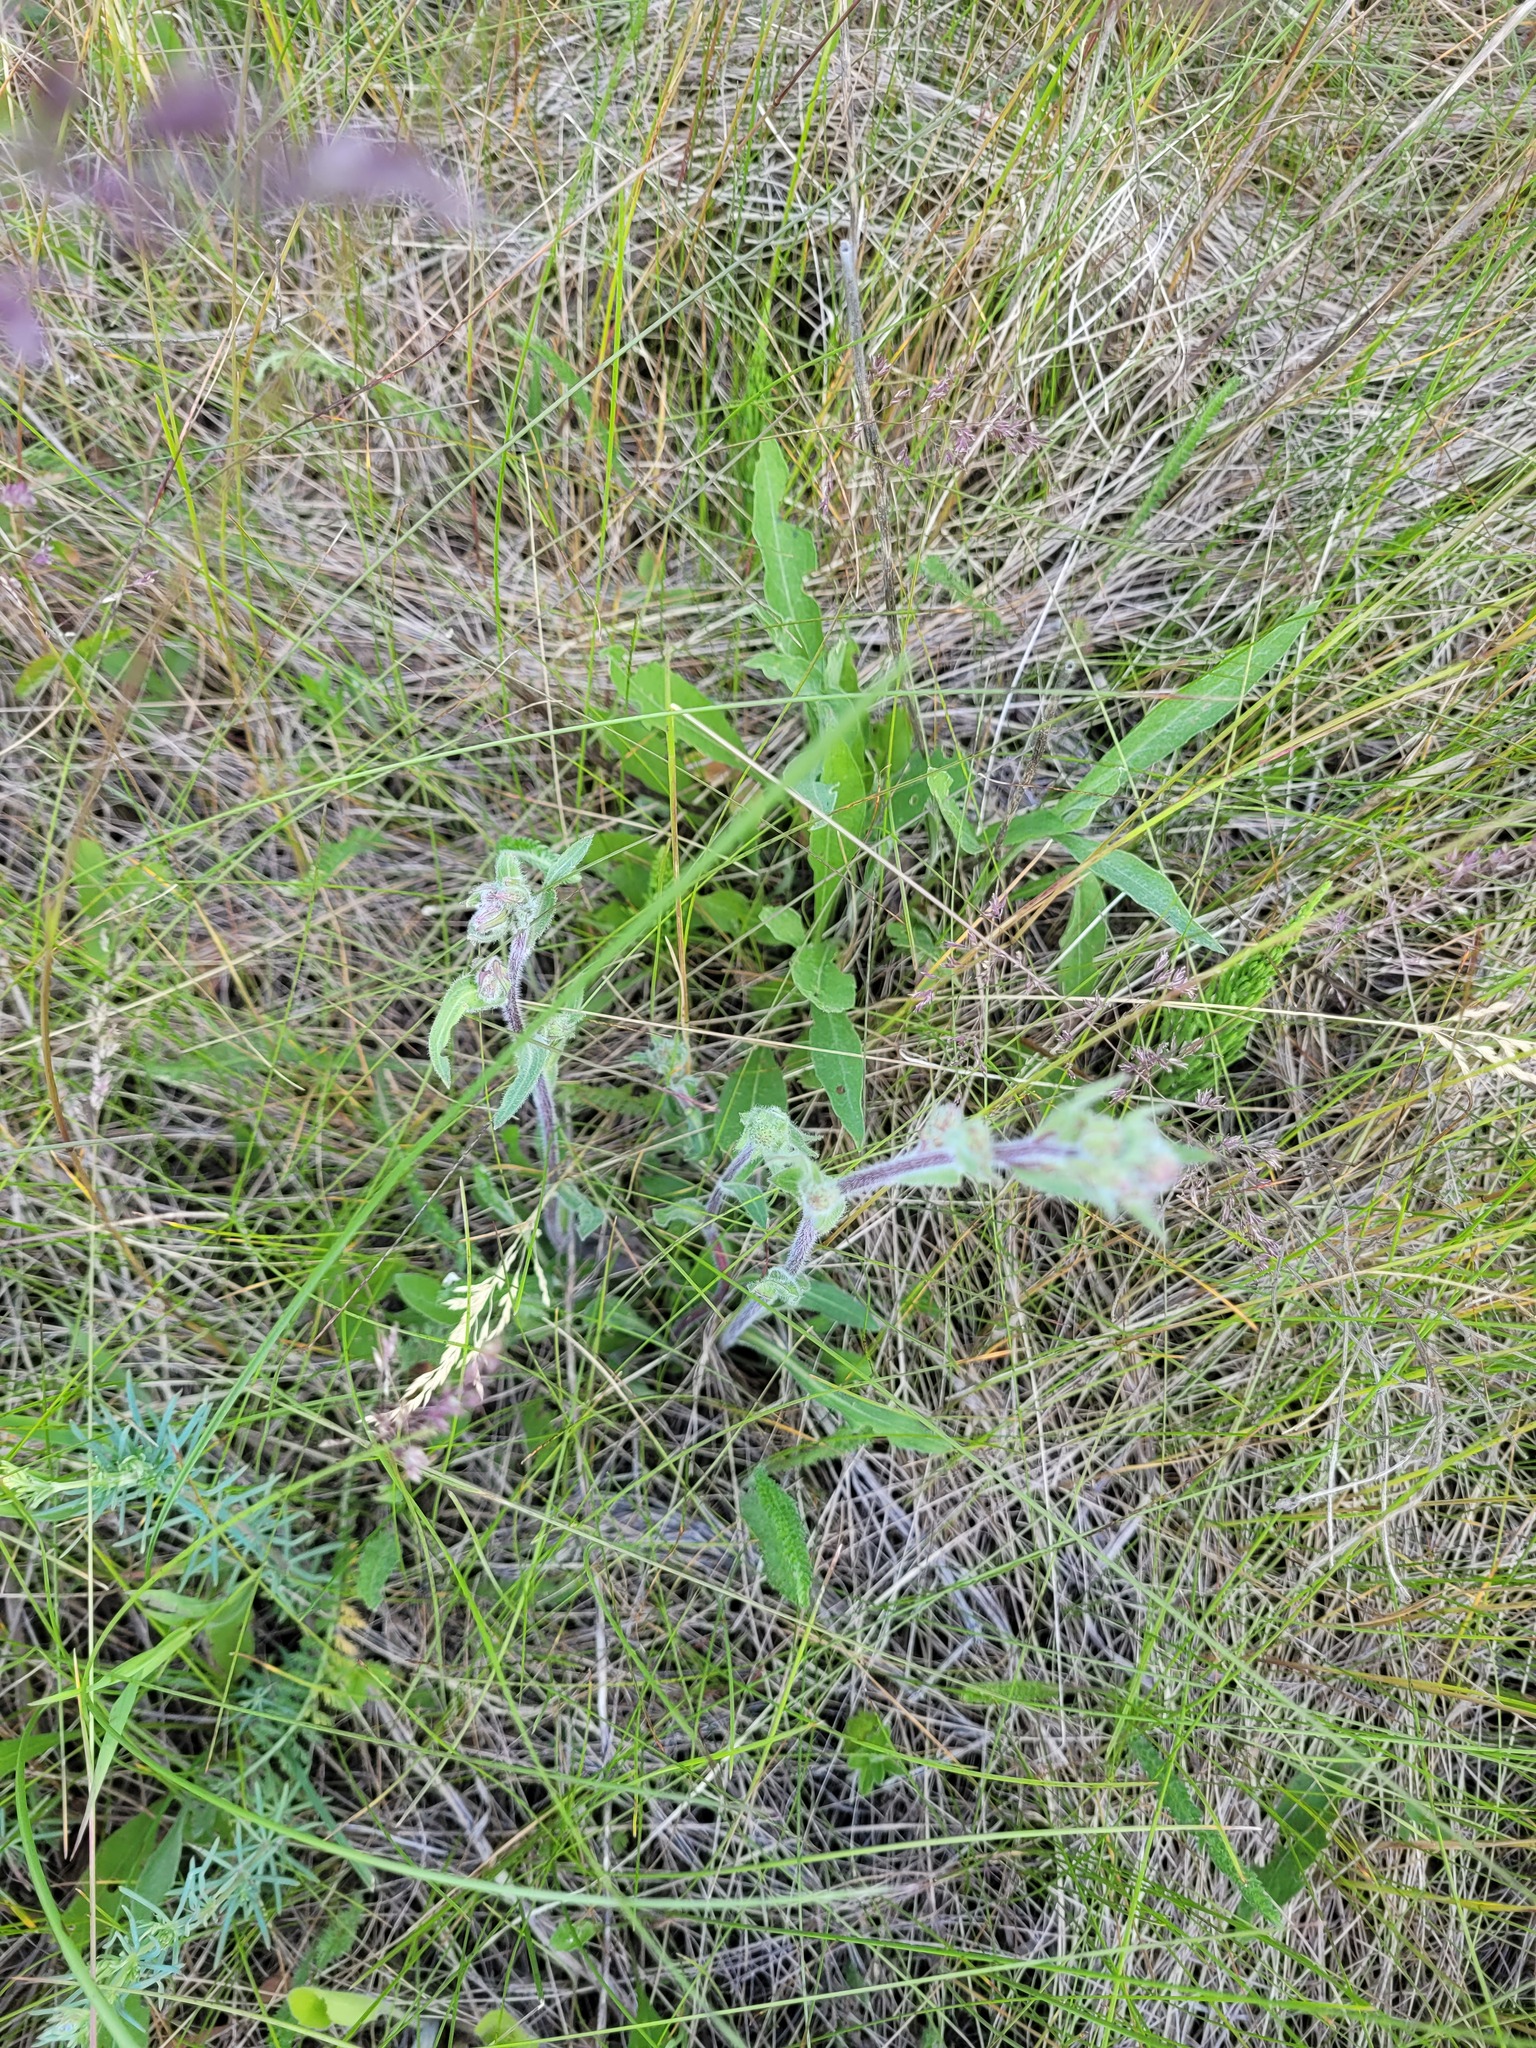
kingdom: Plantae
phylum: Tracheophyta
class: Magnoliopsida
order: Asterales
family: Asteraceae
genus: Erigeron
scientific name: Erigeron acris
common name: Blue fleabane
